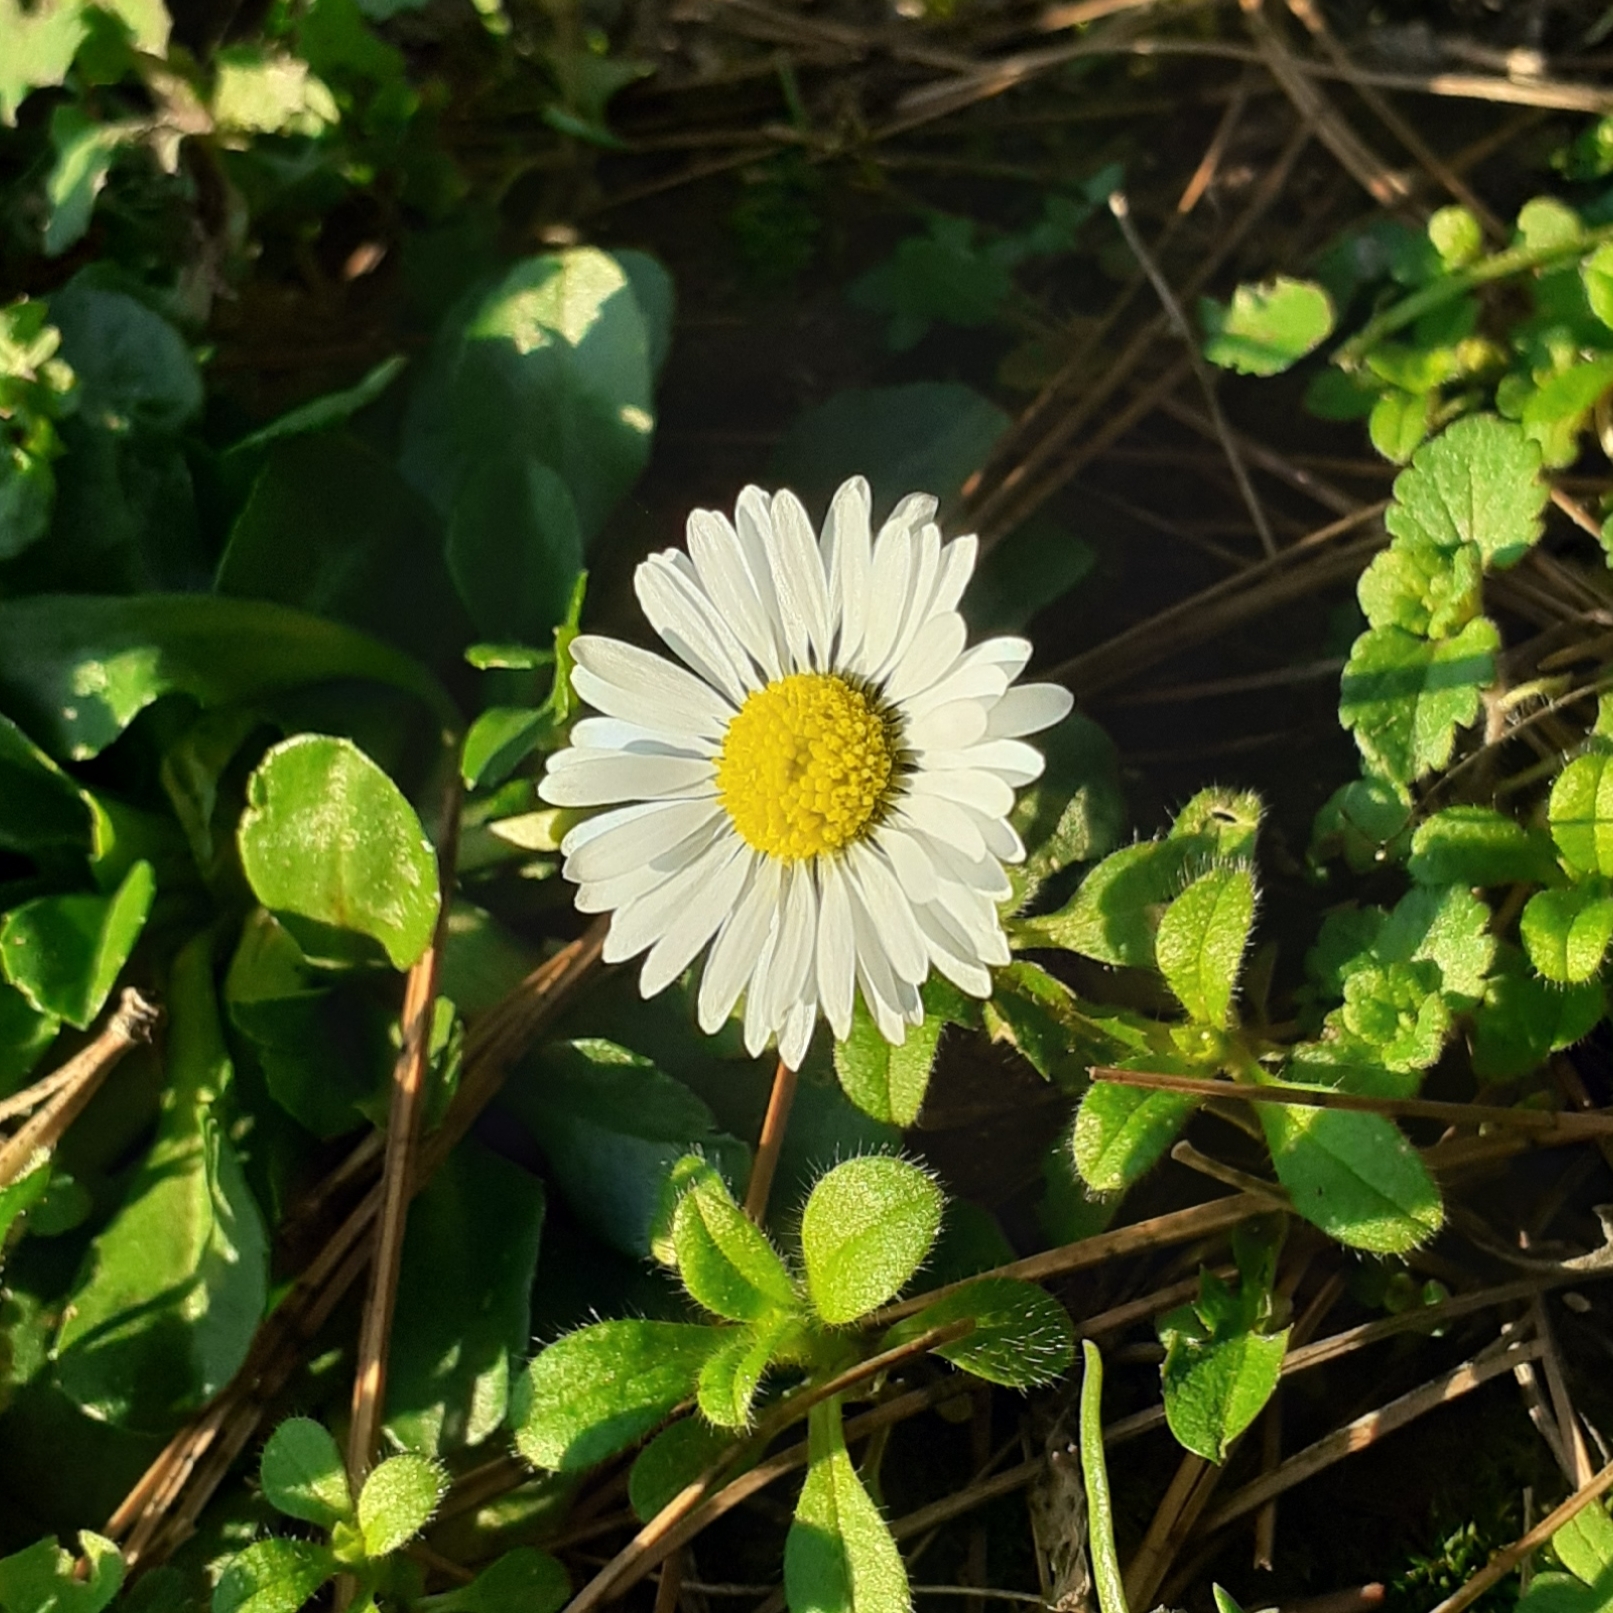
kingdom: Plantae
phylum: Tracheophyta
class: Magnoliopsida
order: Asterales
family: Asteraceae
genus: Bellis
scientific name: Bellis perennis
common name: Lawndaisy
